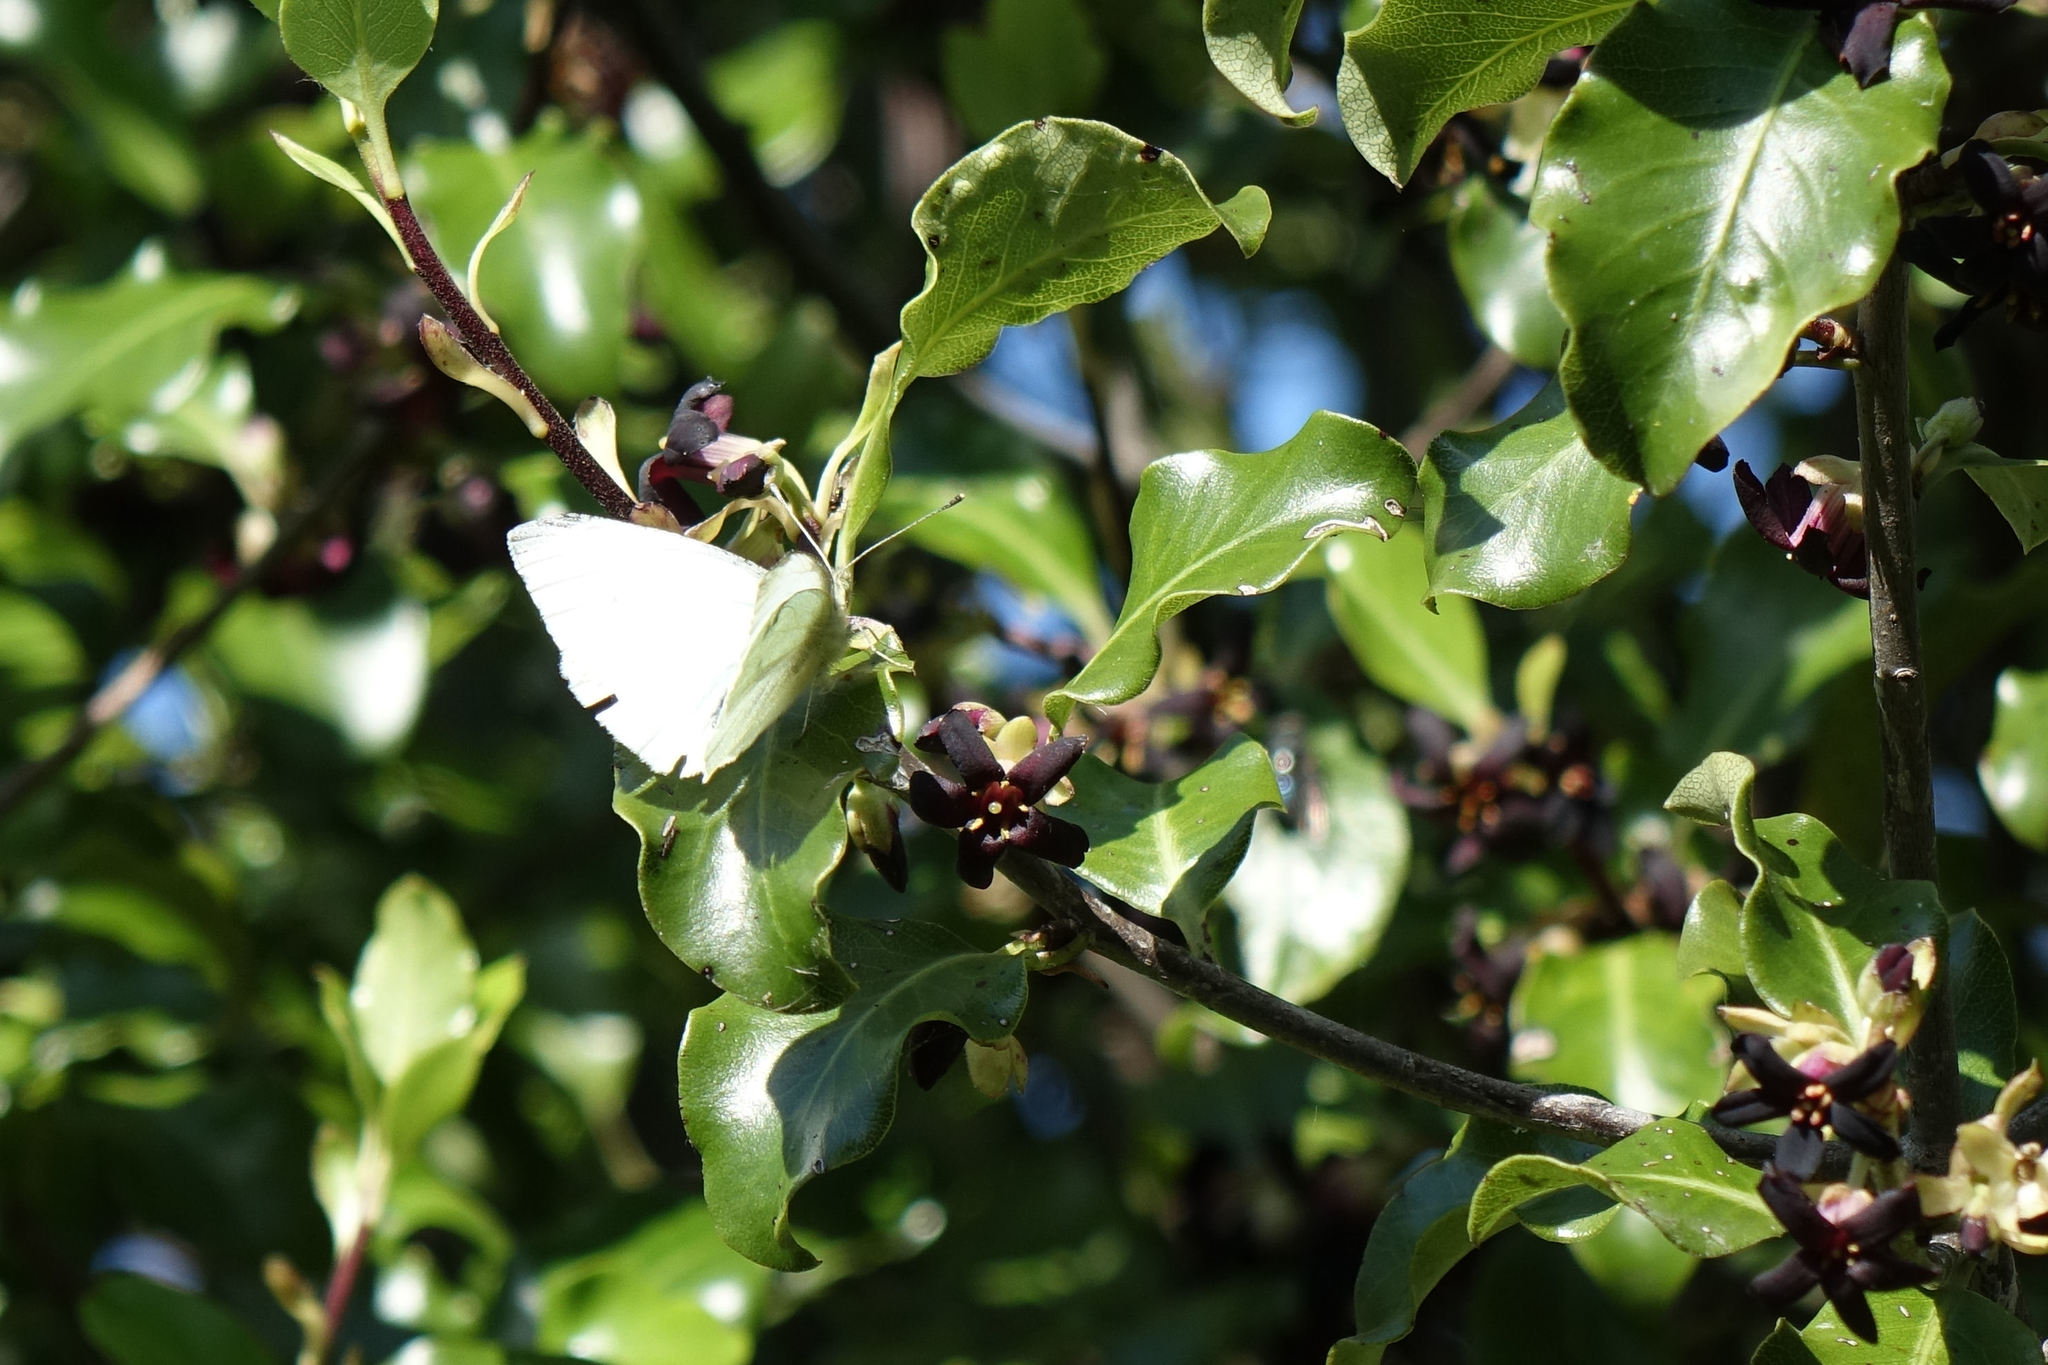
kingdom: Animalia
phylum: Arthropoda
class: Insecta
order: Lepidoptera
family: Pieridae
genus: Pieris
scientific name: Pieris rapae
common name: Small white
